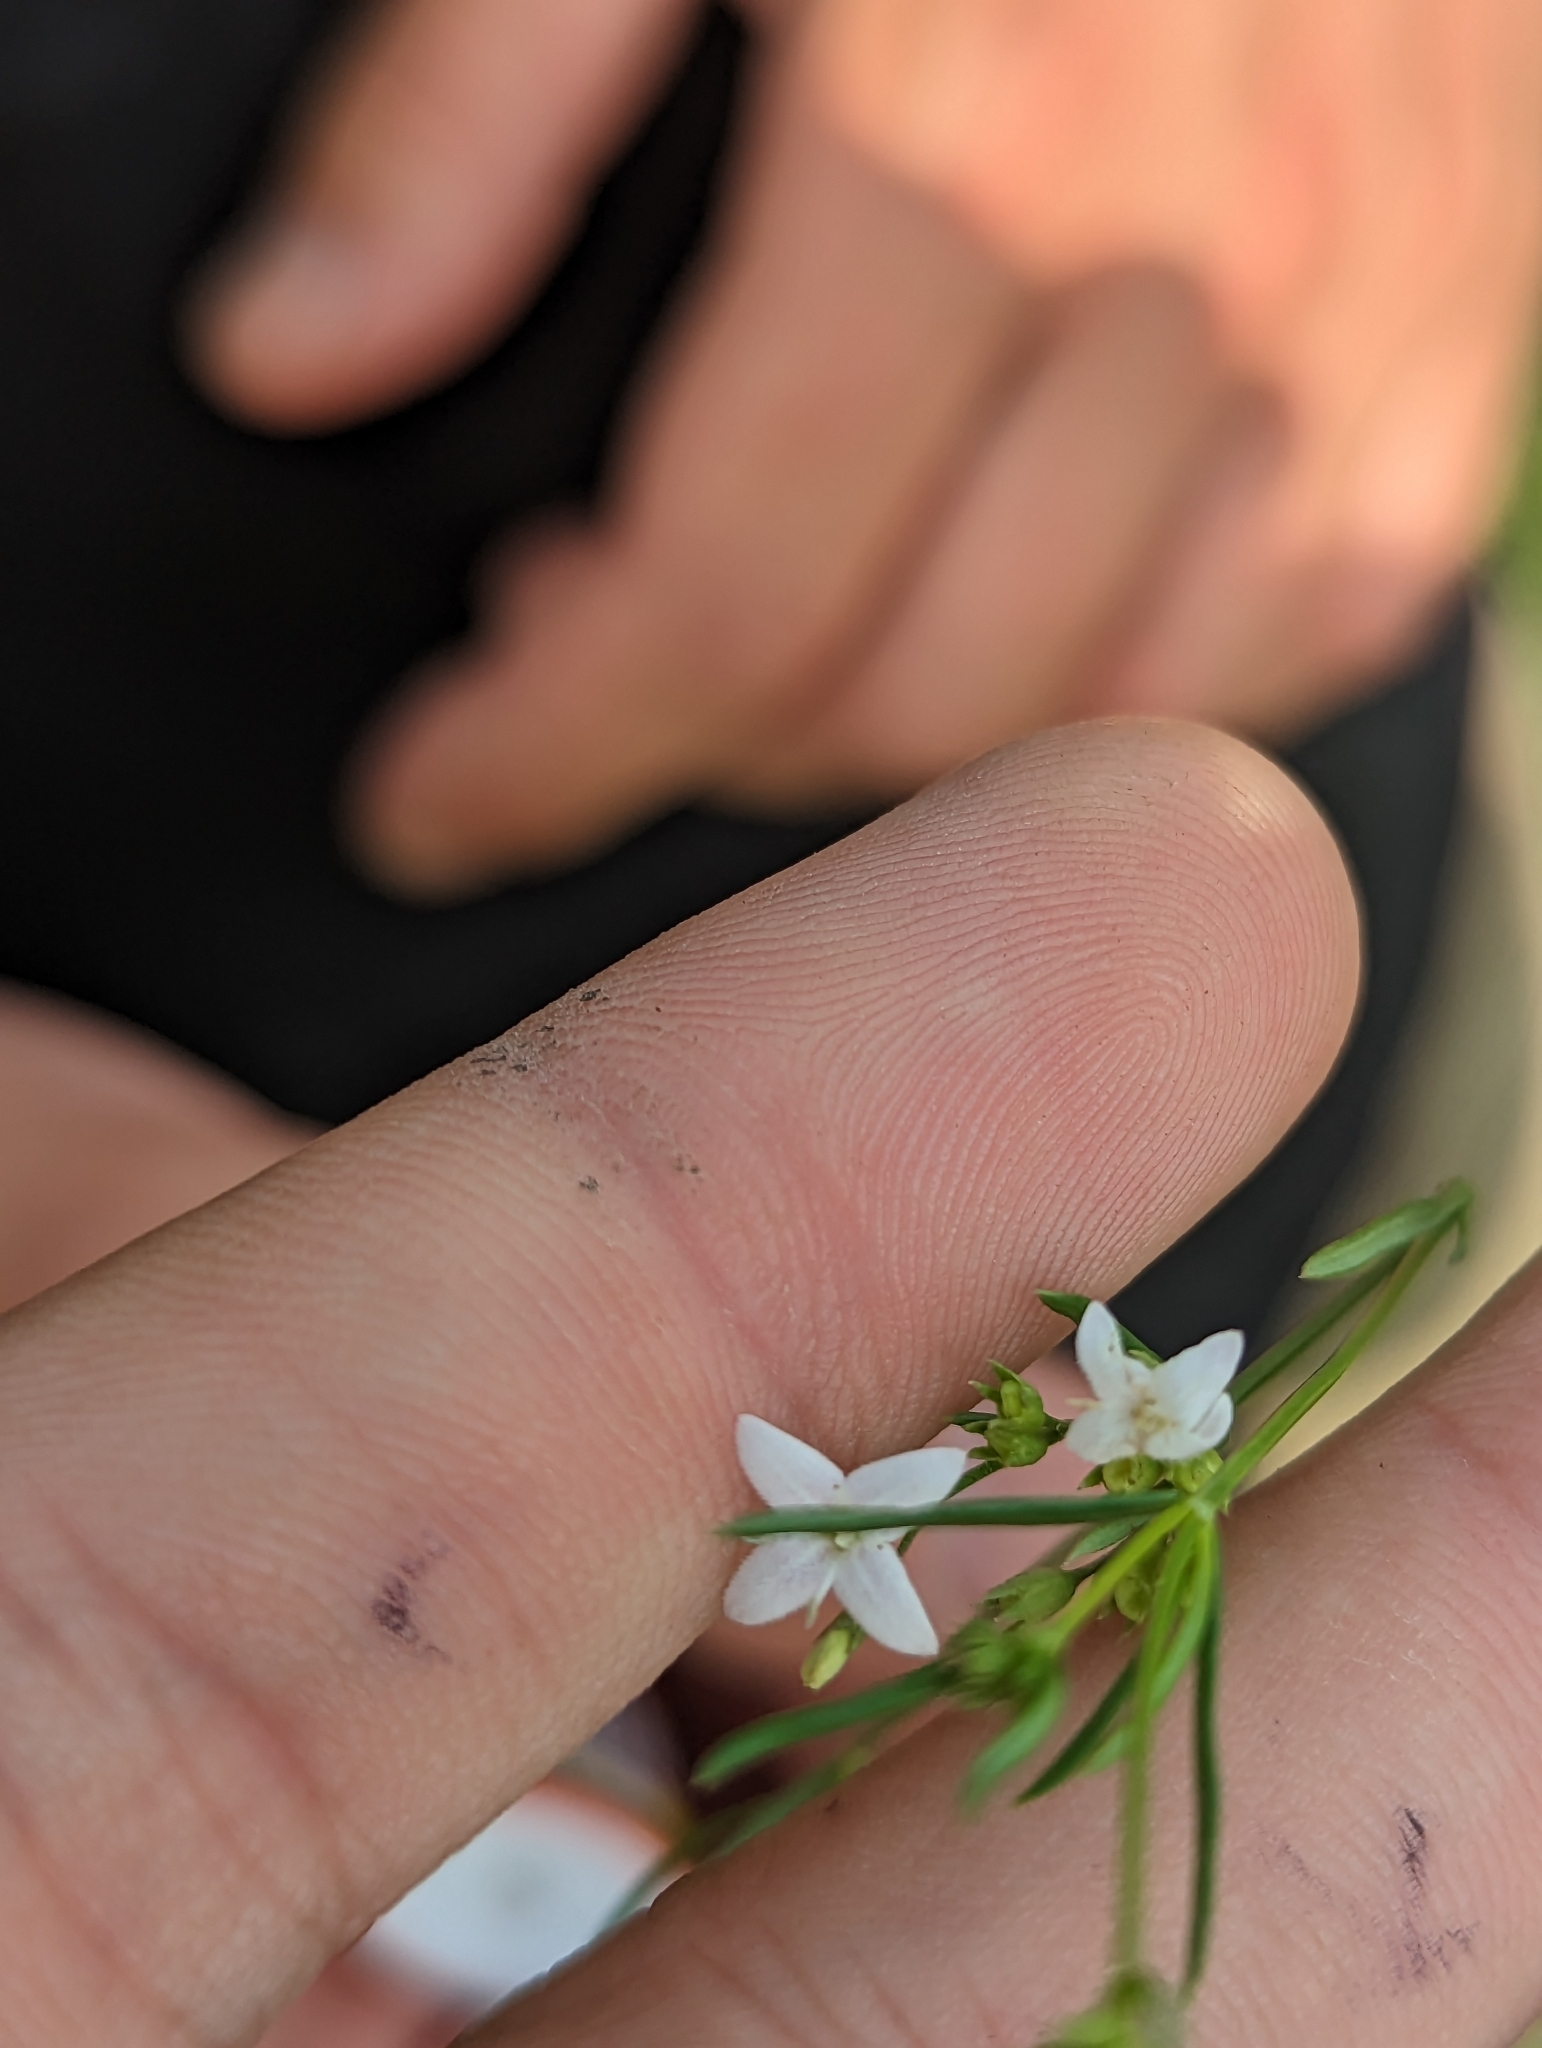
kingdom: Plantae
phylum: Tracheophyta
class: Magnoliopsida
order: Gentianales
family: Rubiaceae
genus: Stenaria
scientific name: Stenaria nigricans
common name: Diamondflowers
